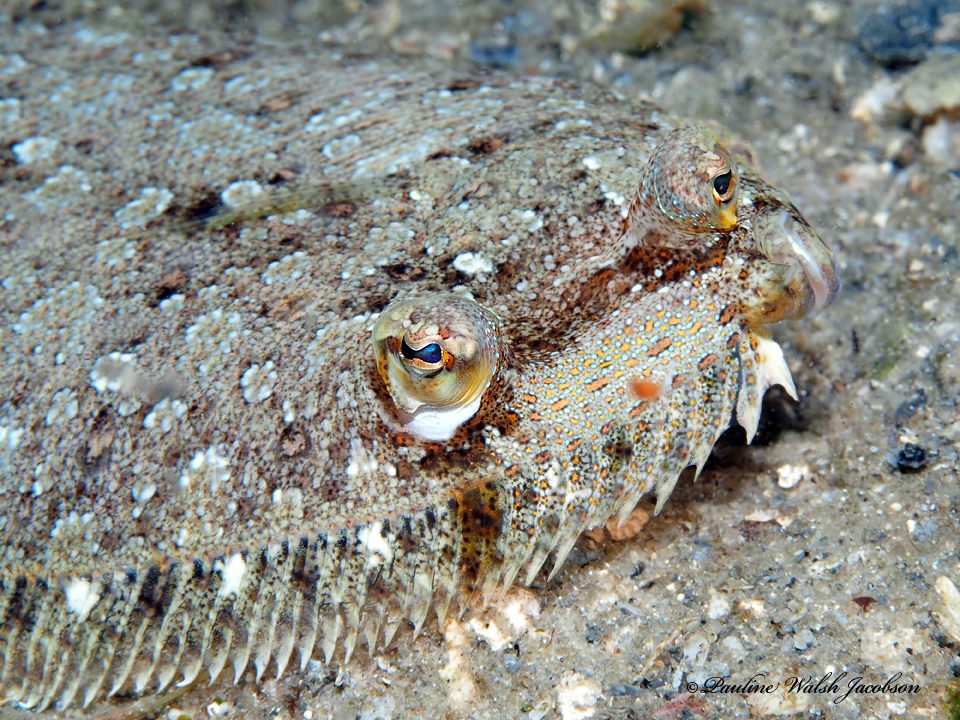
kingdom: Animalia
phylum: Chordata
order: Pleuronectiformes
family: Bothidae
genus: Bothus
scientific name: Bothus ocellatus
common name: Eyed flounder
